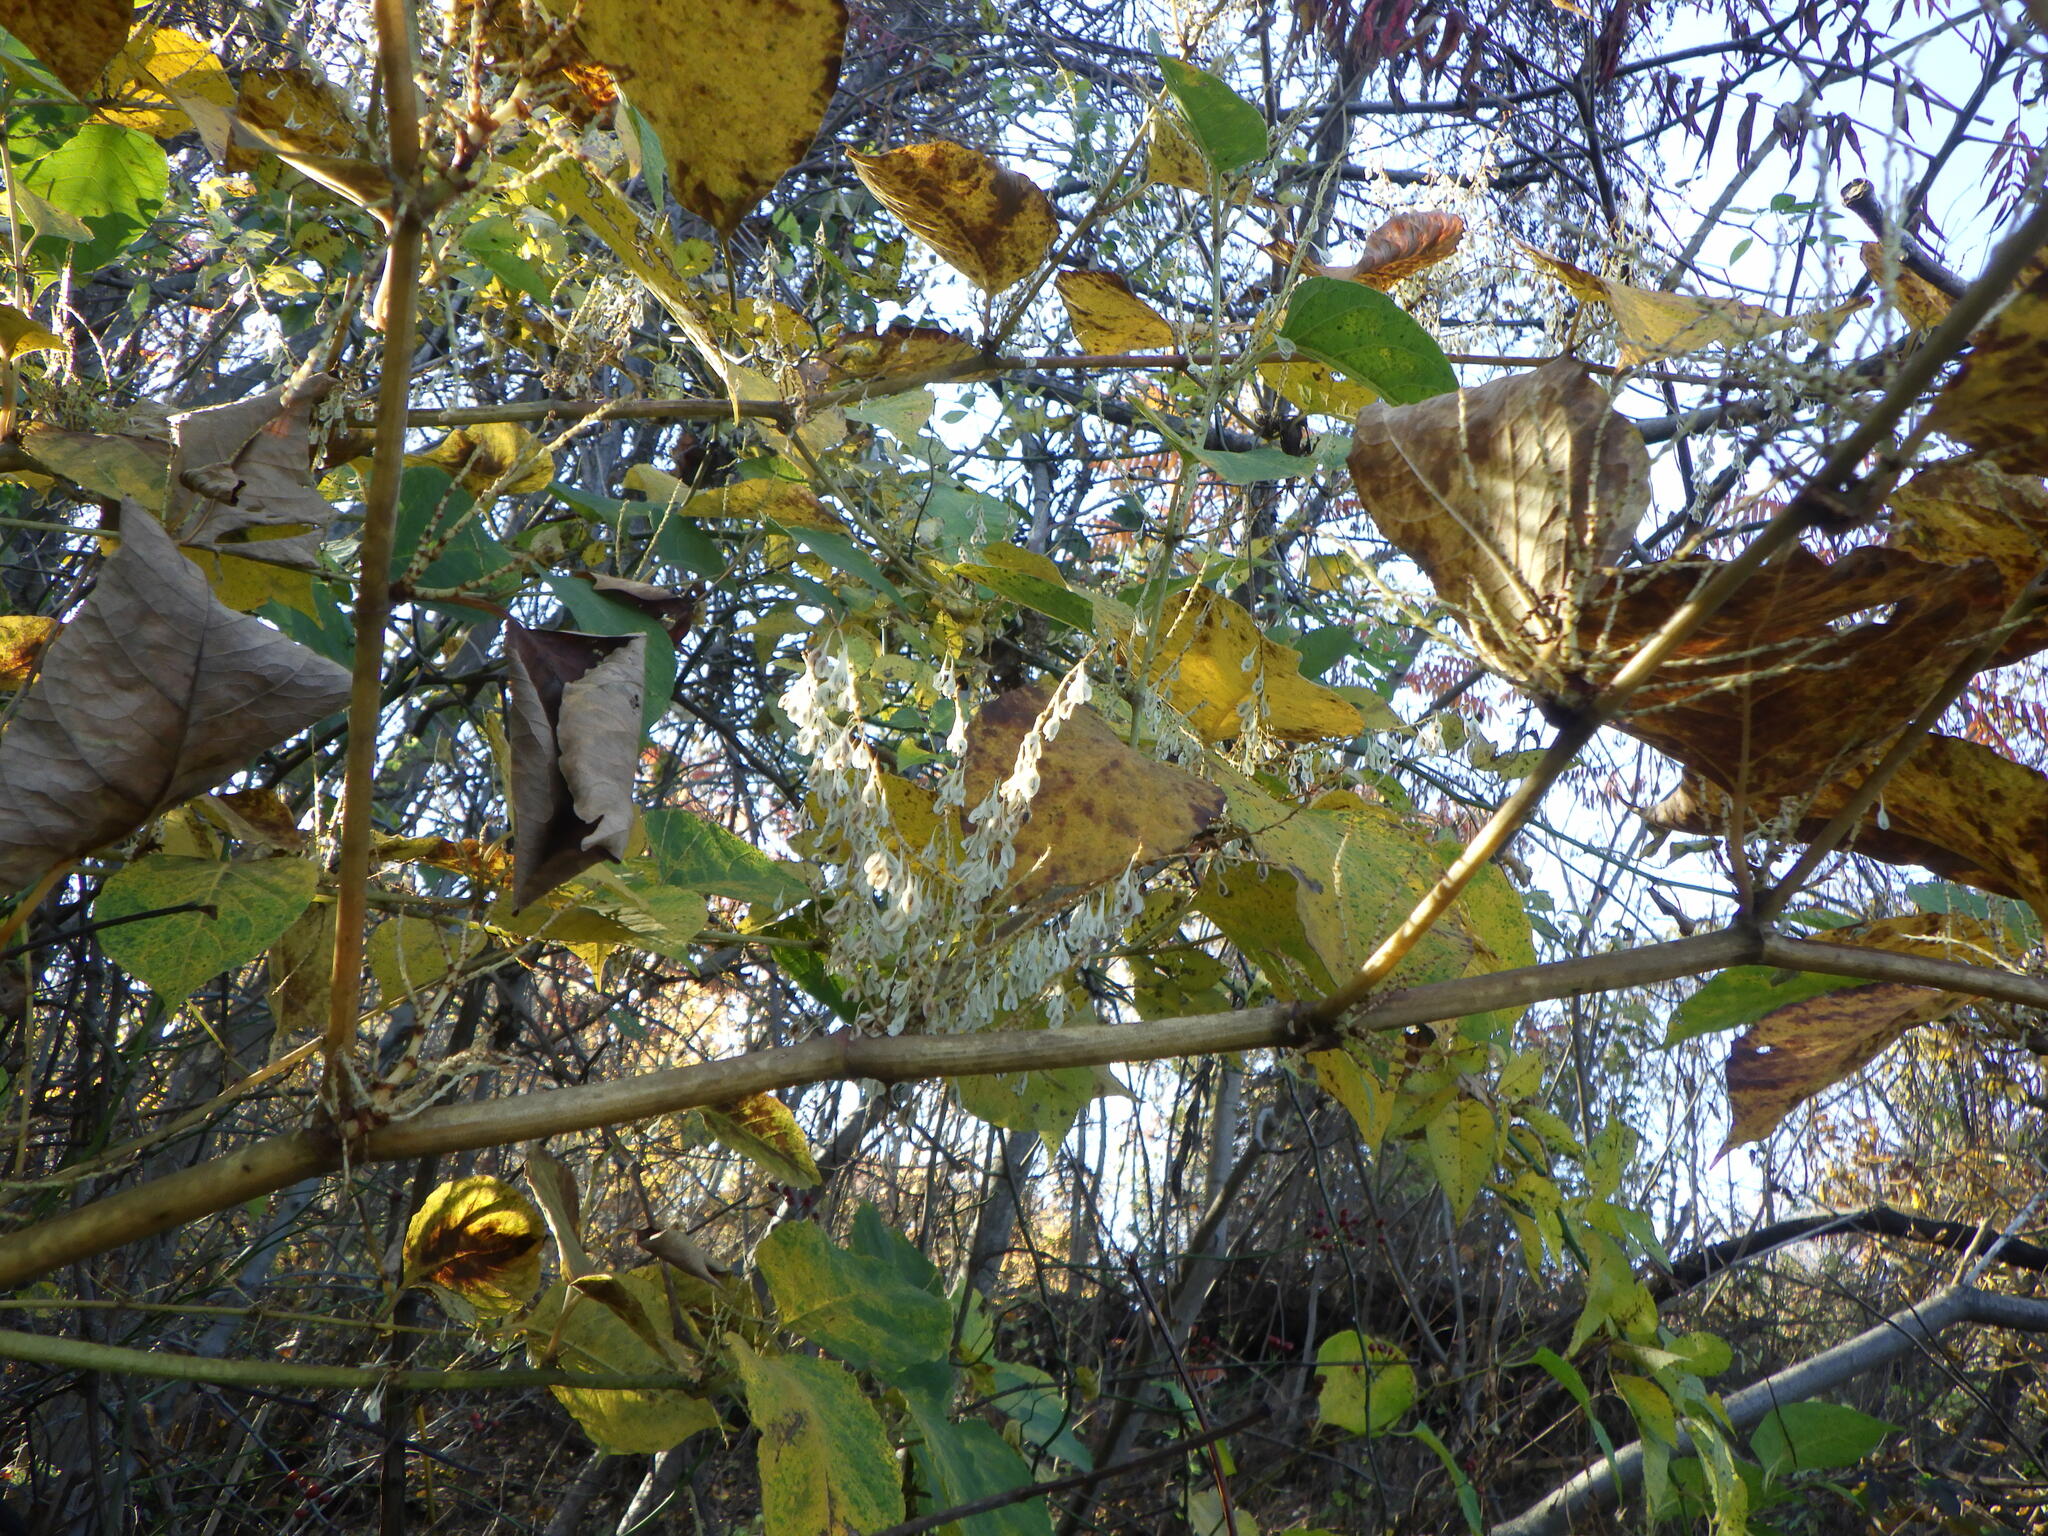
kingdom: Plantae
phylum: Tracheophyta
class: Magnoliopsida
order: Caryophyllales
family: Polygonaceae
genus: Reynoutria
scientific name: Reynoutria japonica
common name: Japanese knotweed
